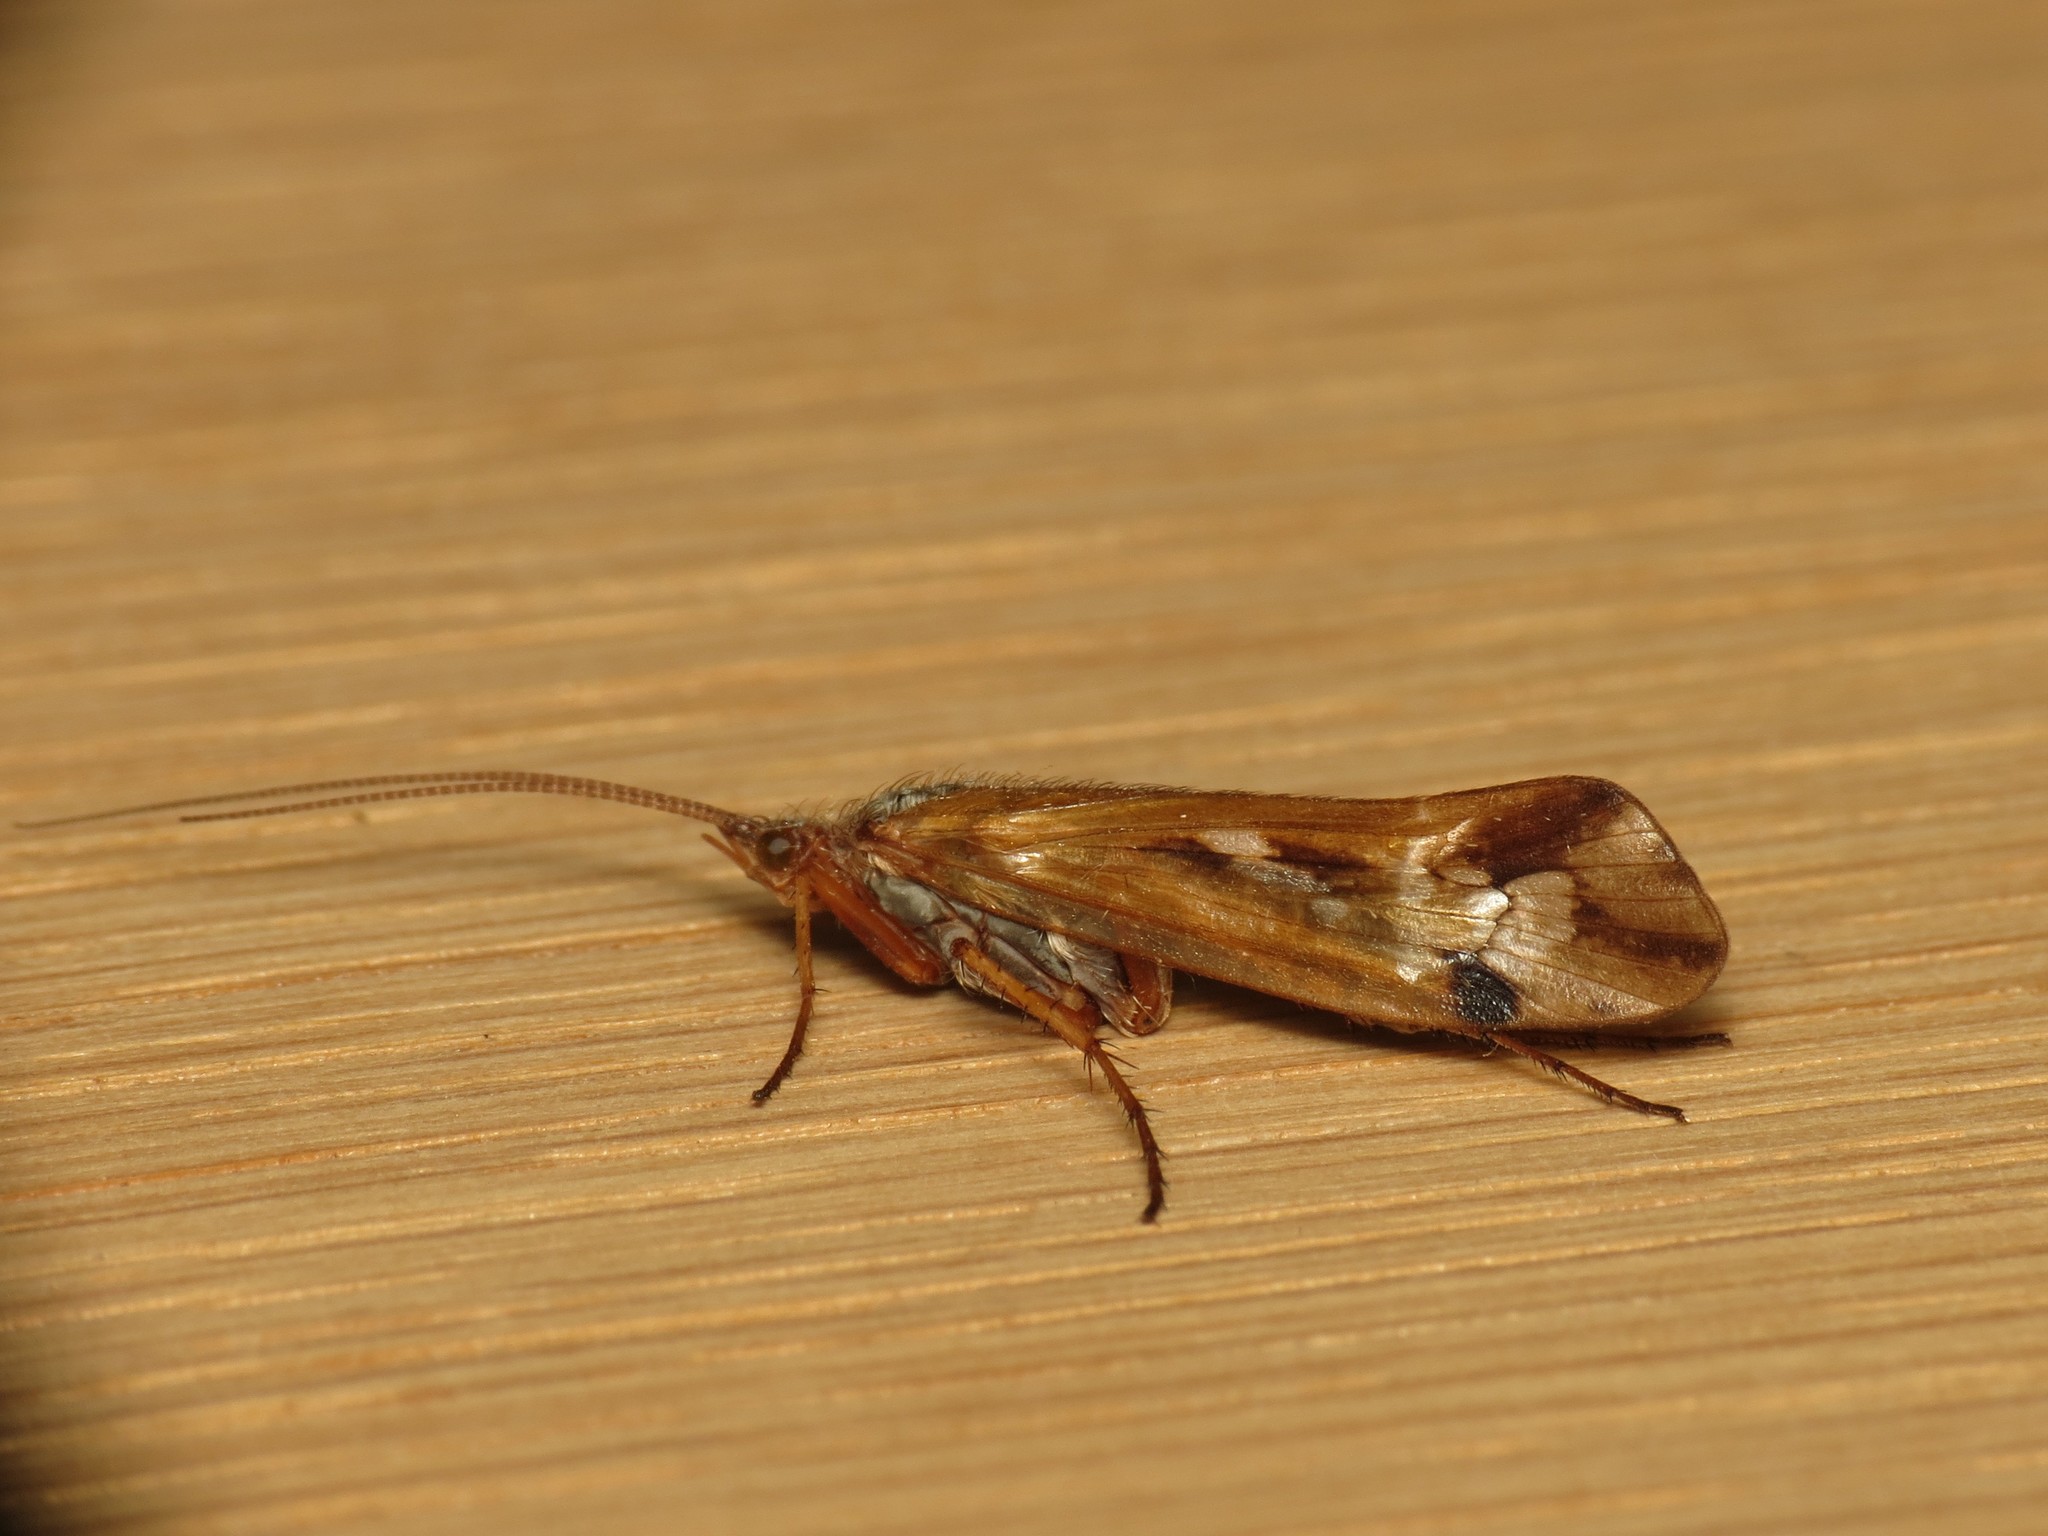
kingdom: Animalia
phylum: Arthropoda
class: Insecta
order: Trichoptera
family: Limnephilidae
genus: Limnephilus
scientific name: Limnephilus binotatus
